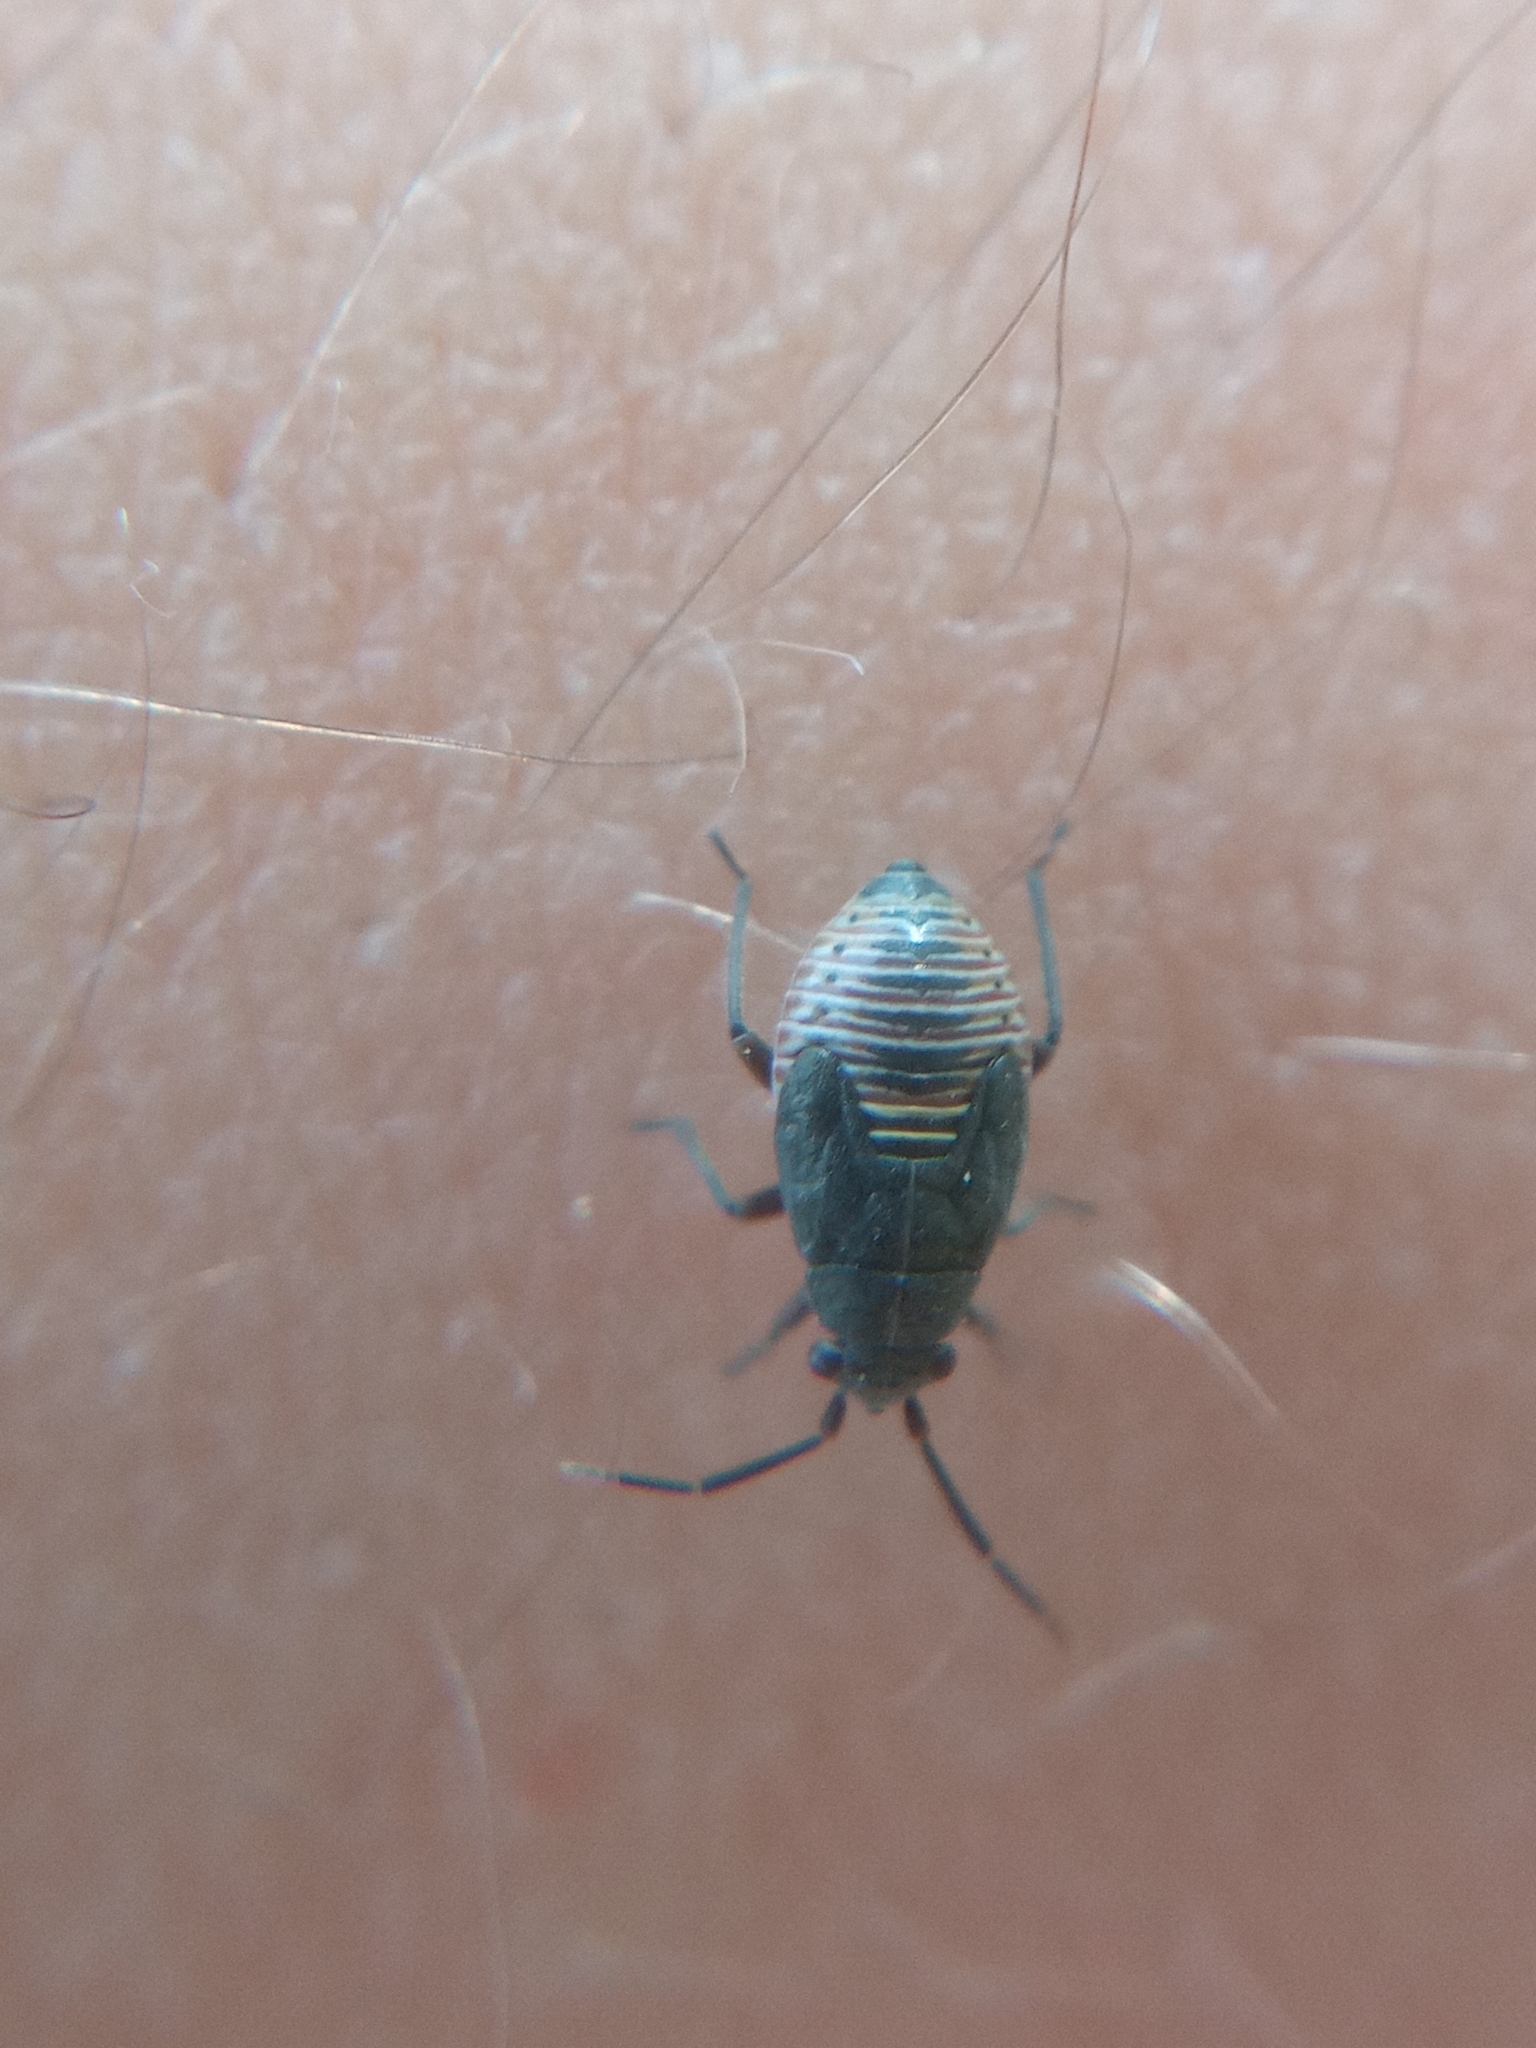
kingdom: Animalia
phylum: Arthropoda
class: Insecta
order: Hemiptera
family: Miridae
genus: Heterocordylus
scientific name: Heterocordylus tibialis
